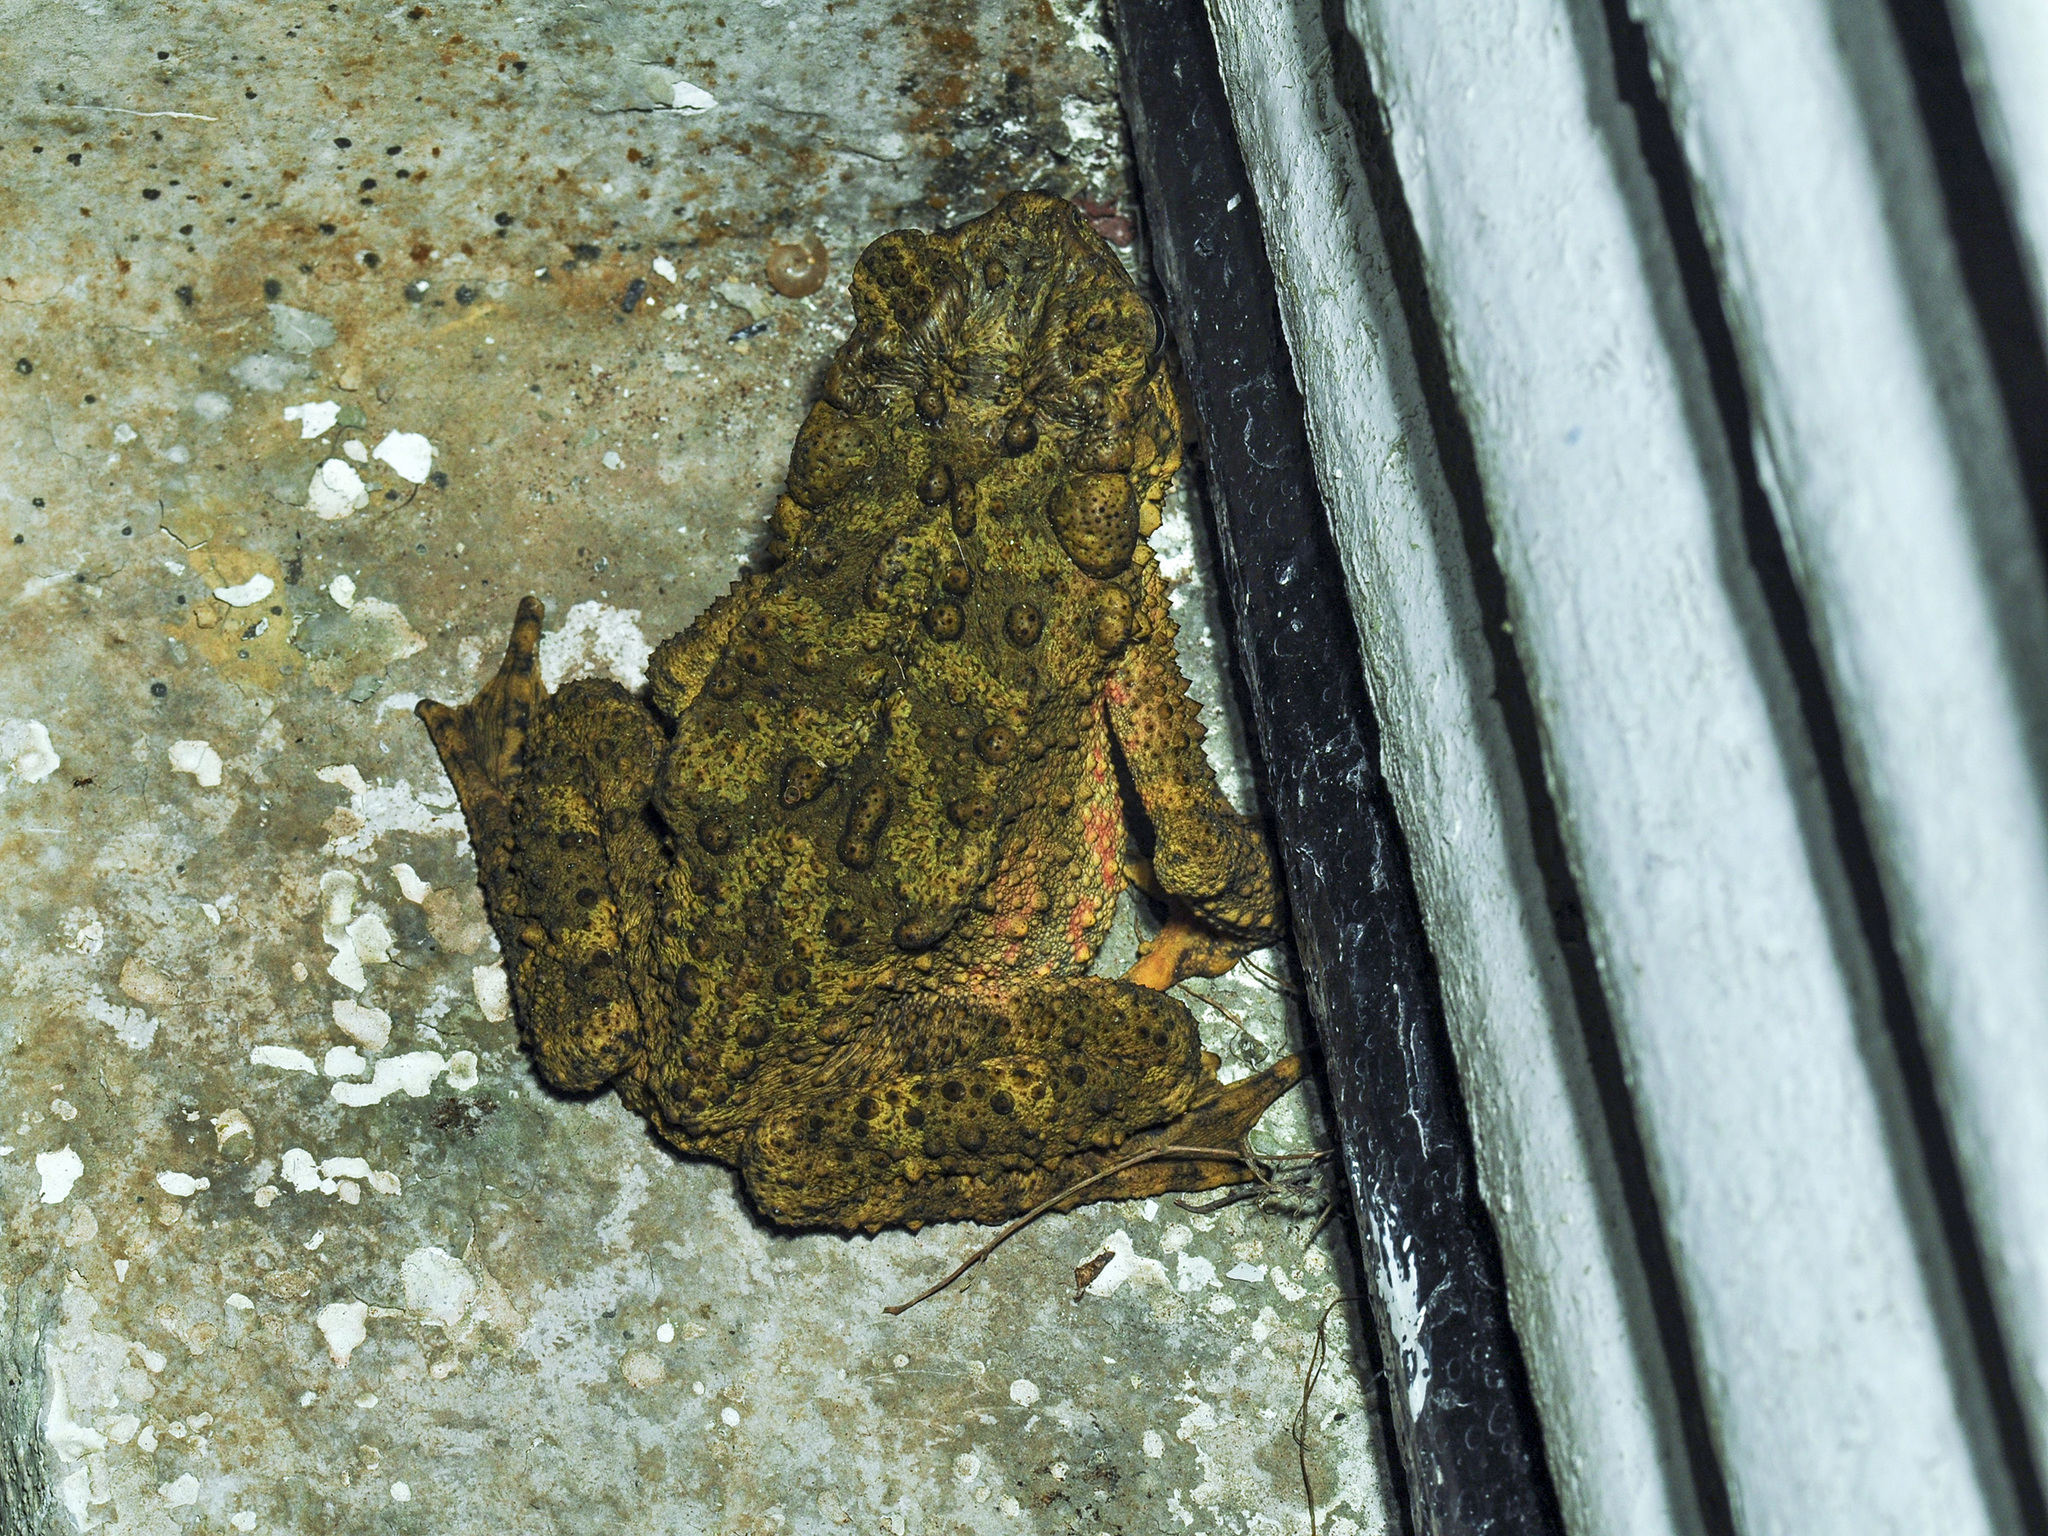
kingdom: Animalia
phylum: Chordata
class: Amphibia
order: Anura
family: Bufonidae
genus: Phrynoidis
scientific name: Phrynoidis asper
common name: Asian giant toad
